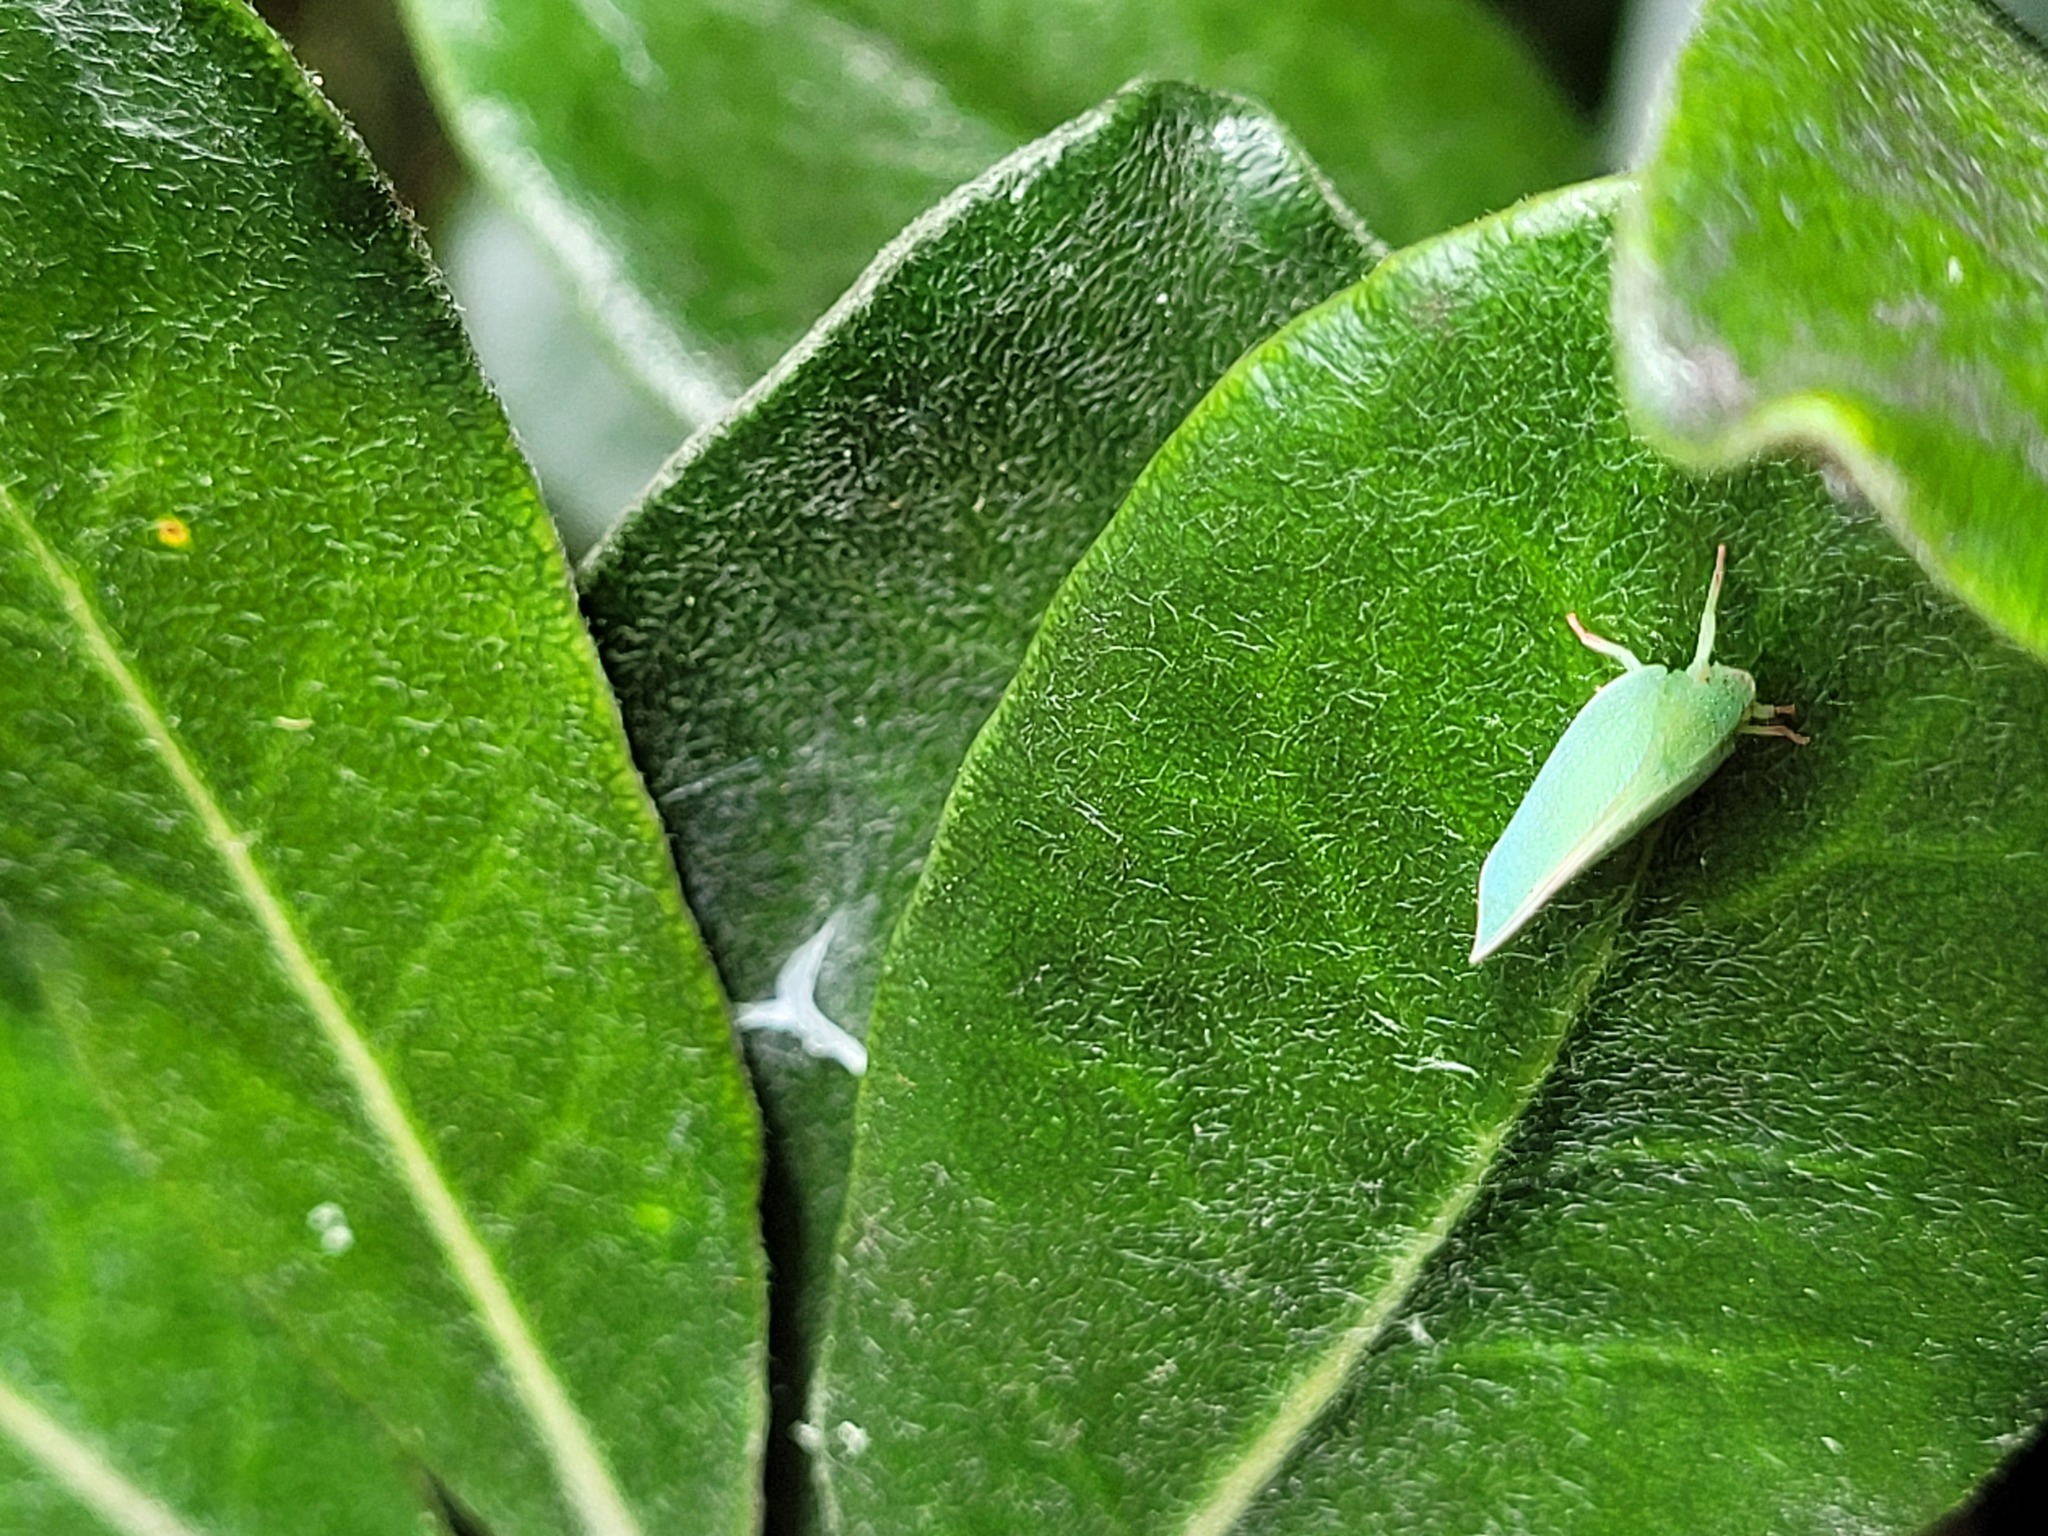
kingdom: Animalia
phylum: Arthropoda
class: Insecta
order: Hemiptera
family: Flatidae
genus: Siphanta
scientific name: Siphanta acuta
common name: Torpedo bug
